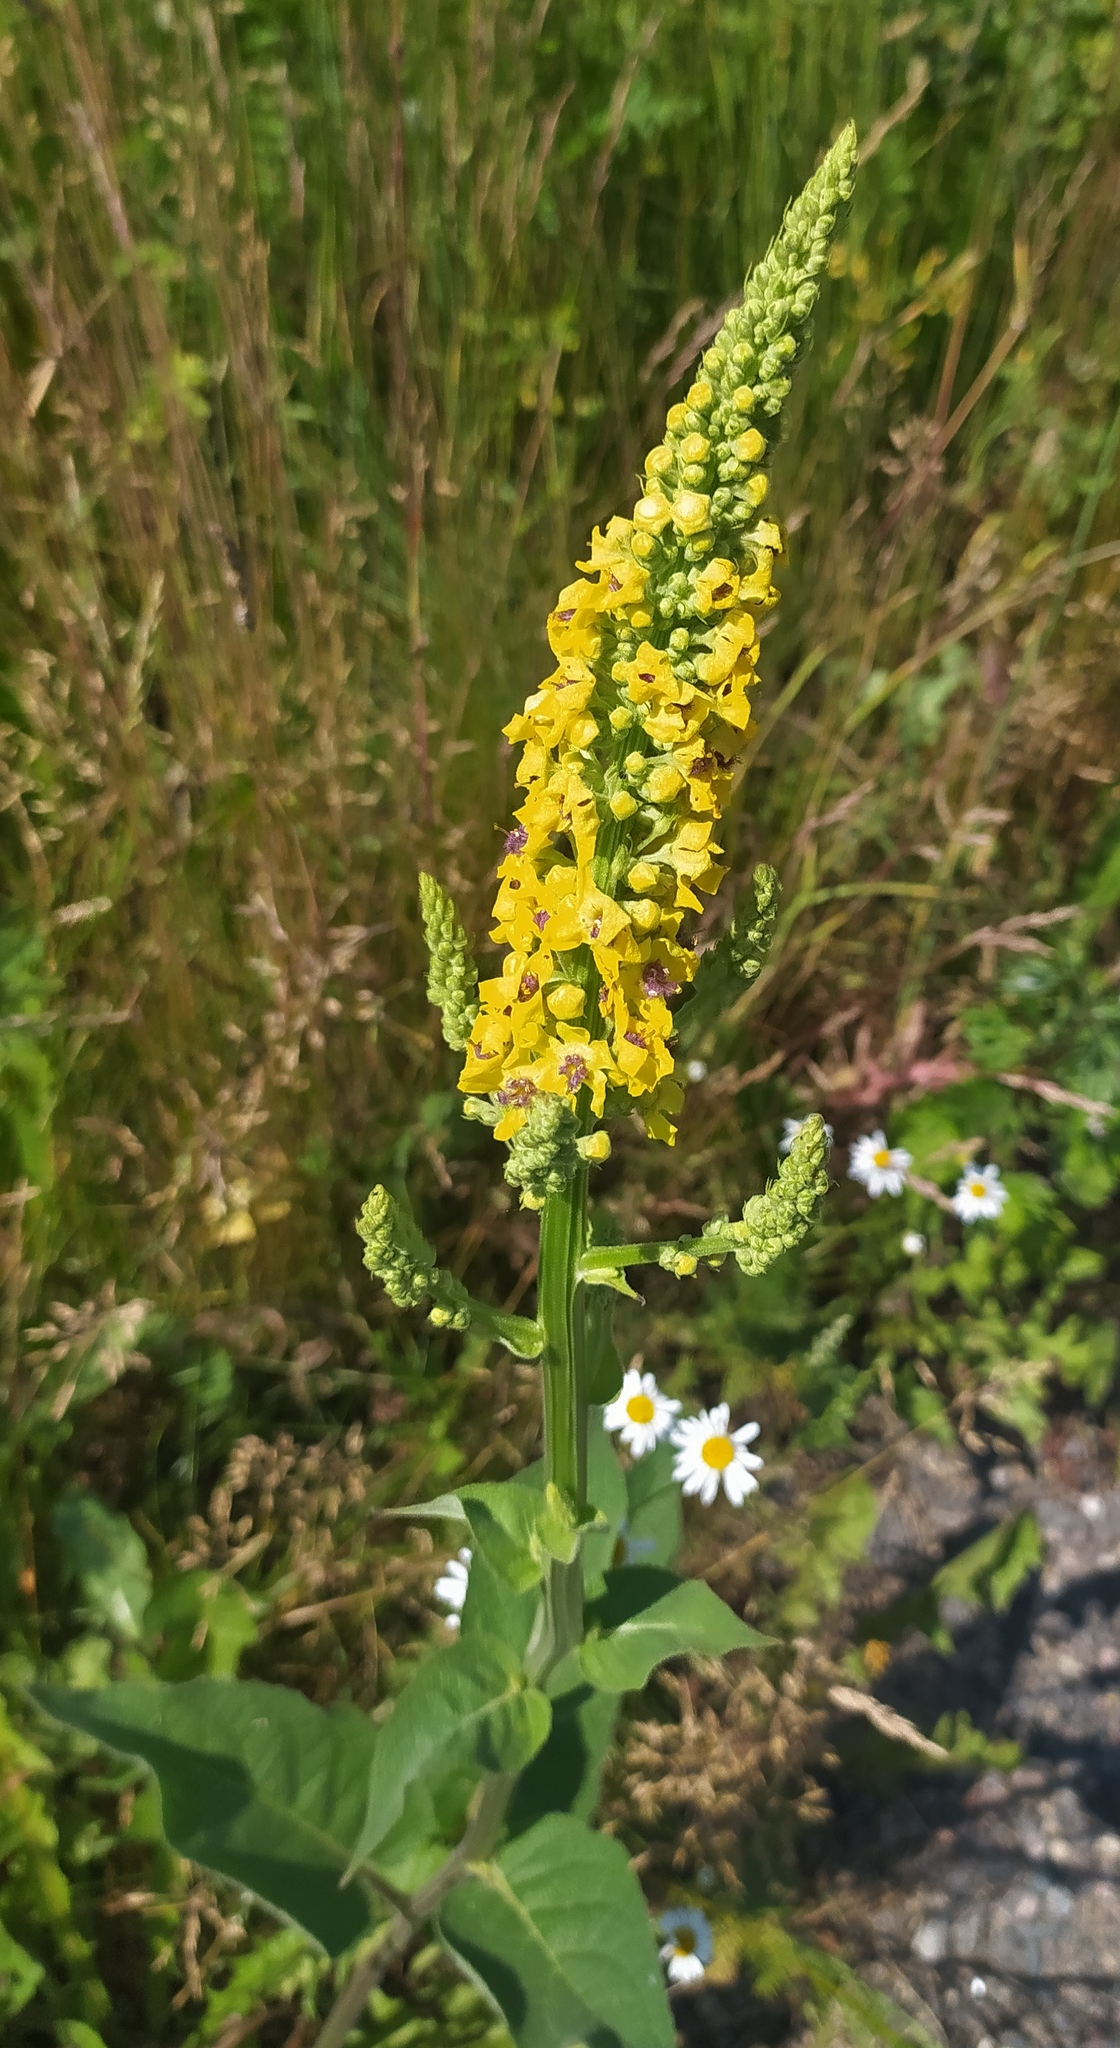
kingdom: Plantae
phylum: Tracheophyta
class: Magnoliopsida
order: Lamiales
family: Scrophulariaceae
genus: Verbascum
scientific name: Verbascum nigrum
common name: Dark mullein
